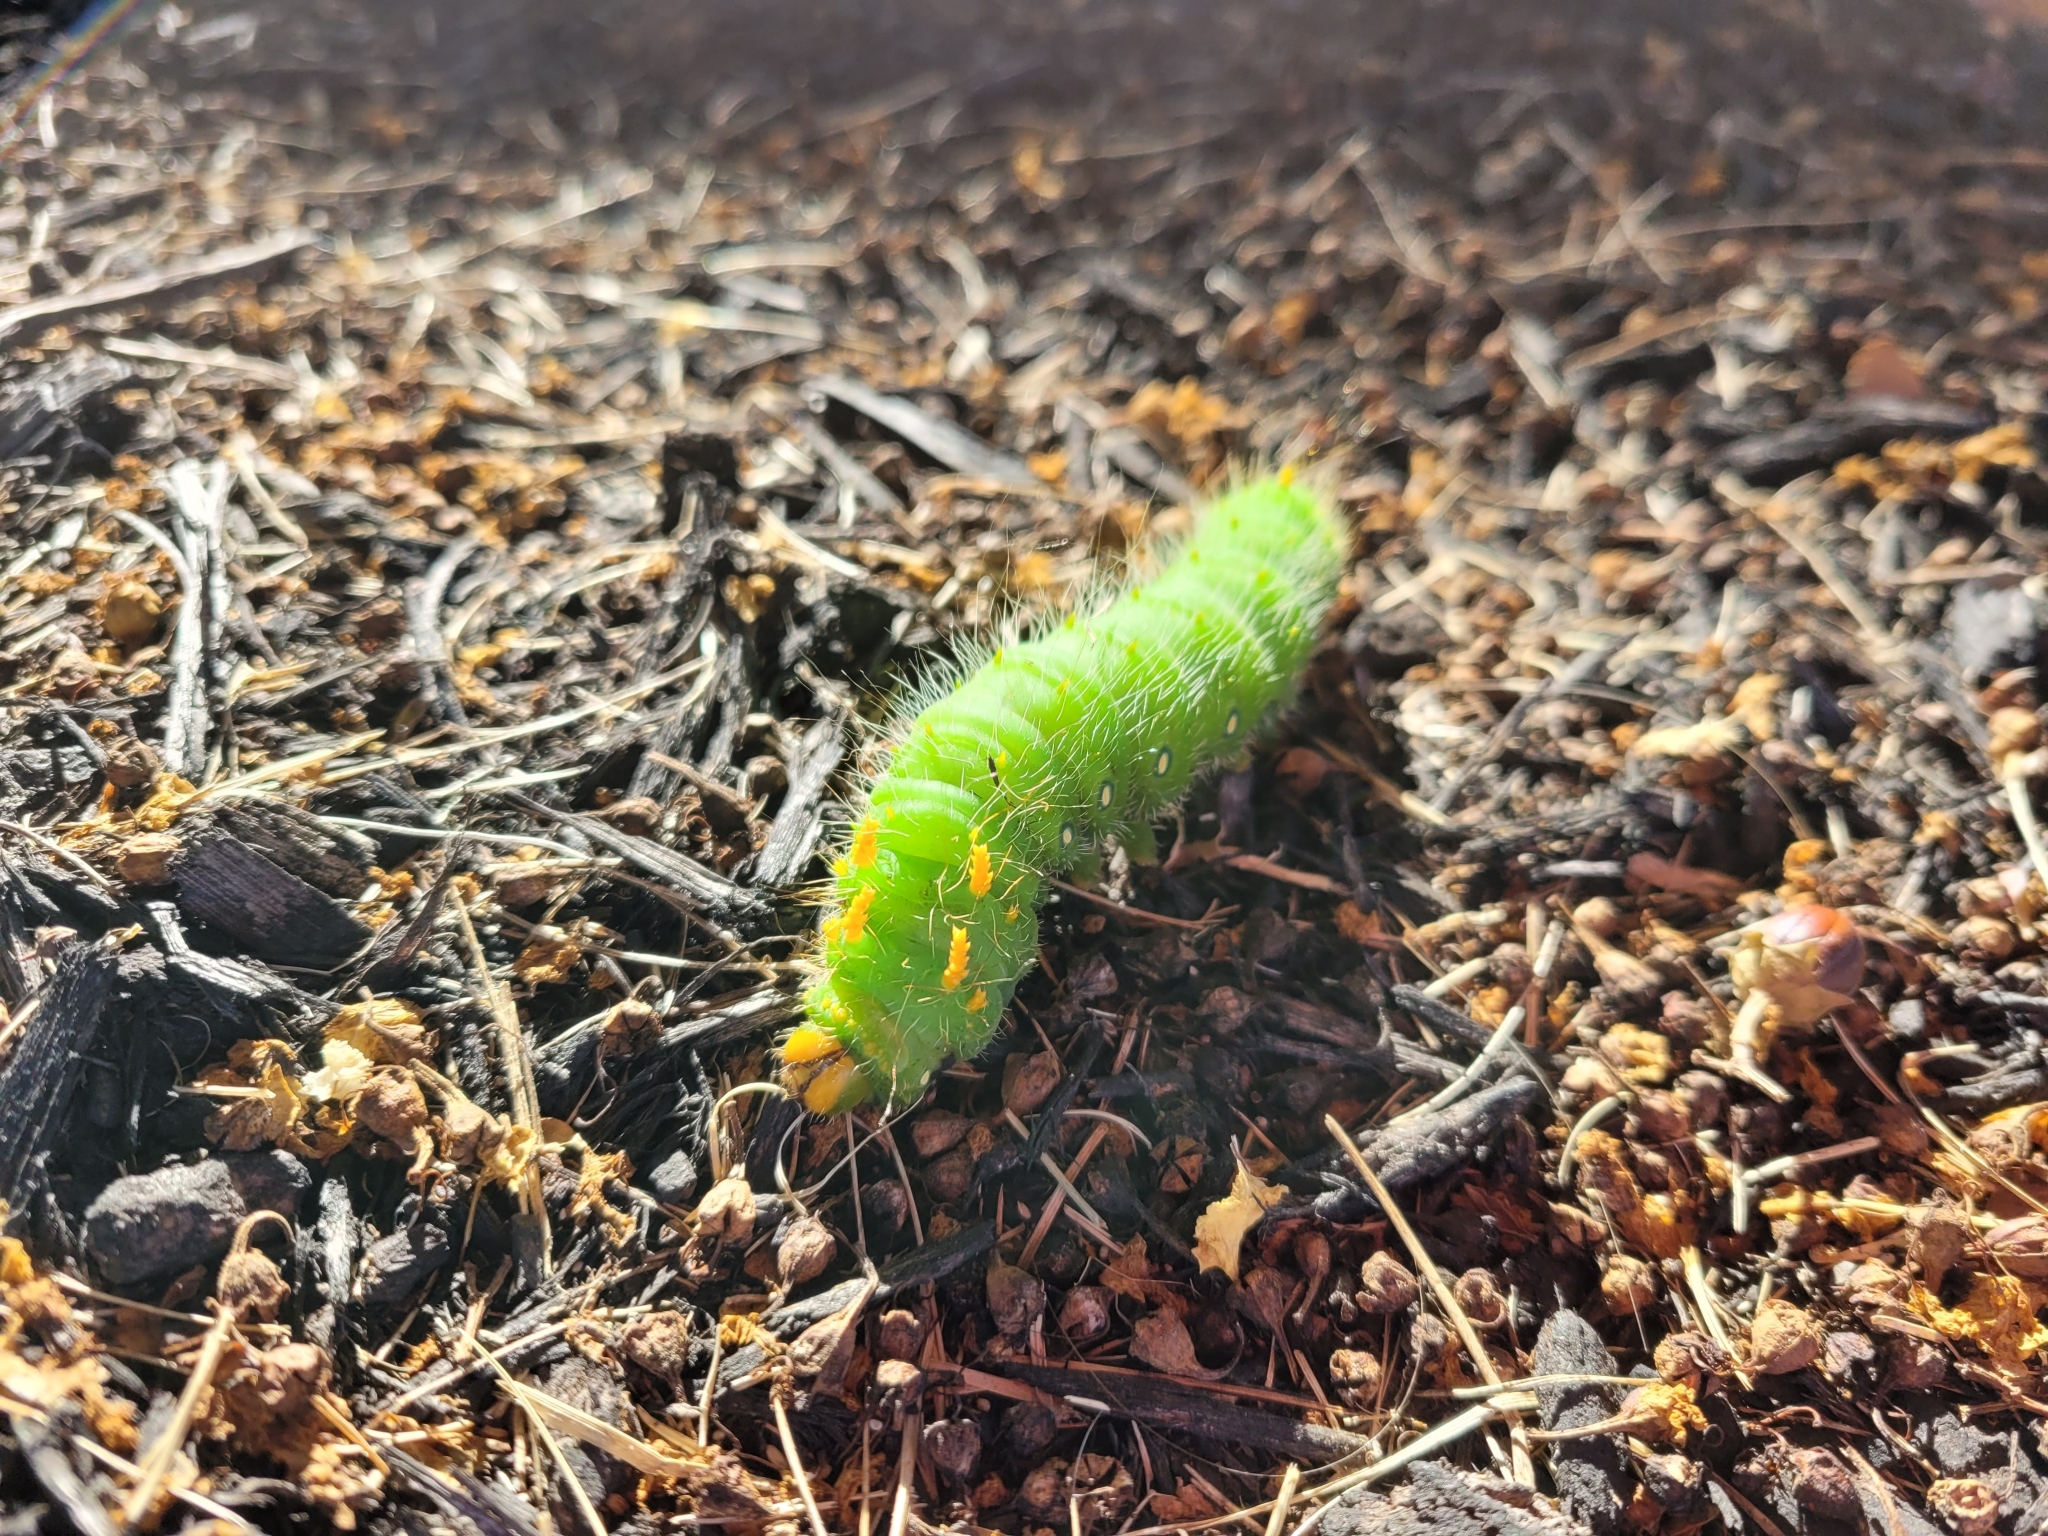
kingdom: Animalia
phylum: Arthropoda
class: Insecta
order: Lepidoptera
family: Saturniidae
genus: Eacles
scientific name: Eacles imperialis
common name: Imperial moth
